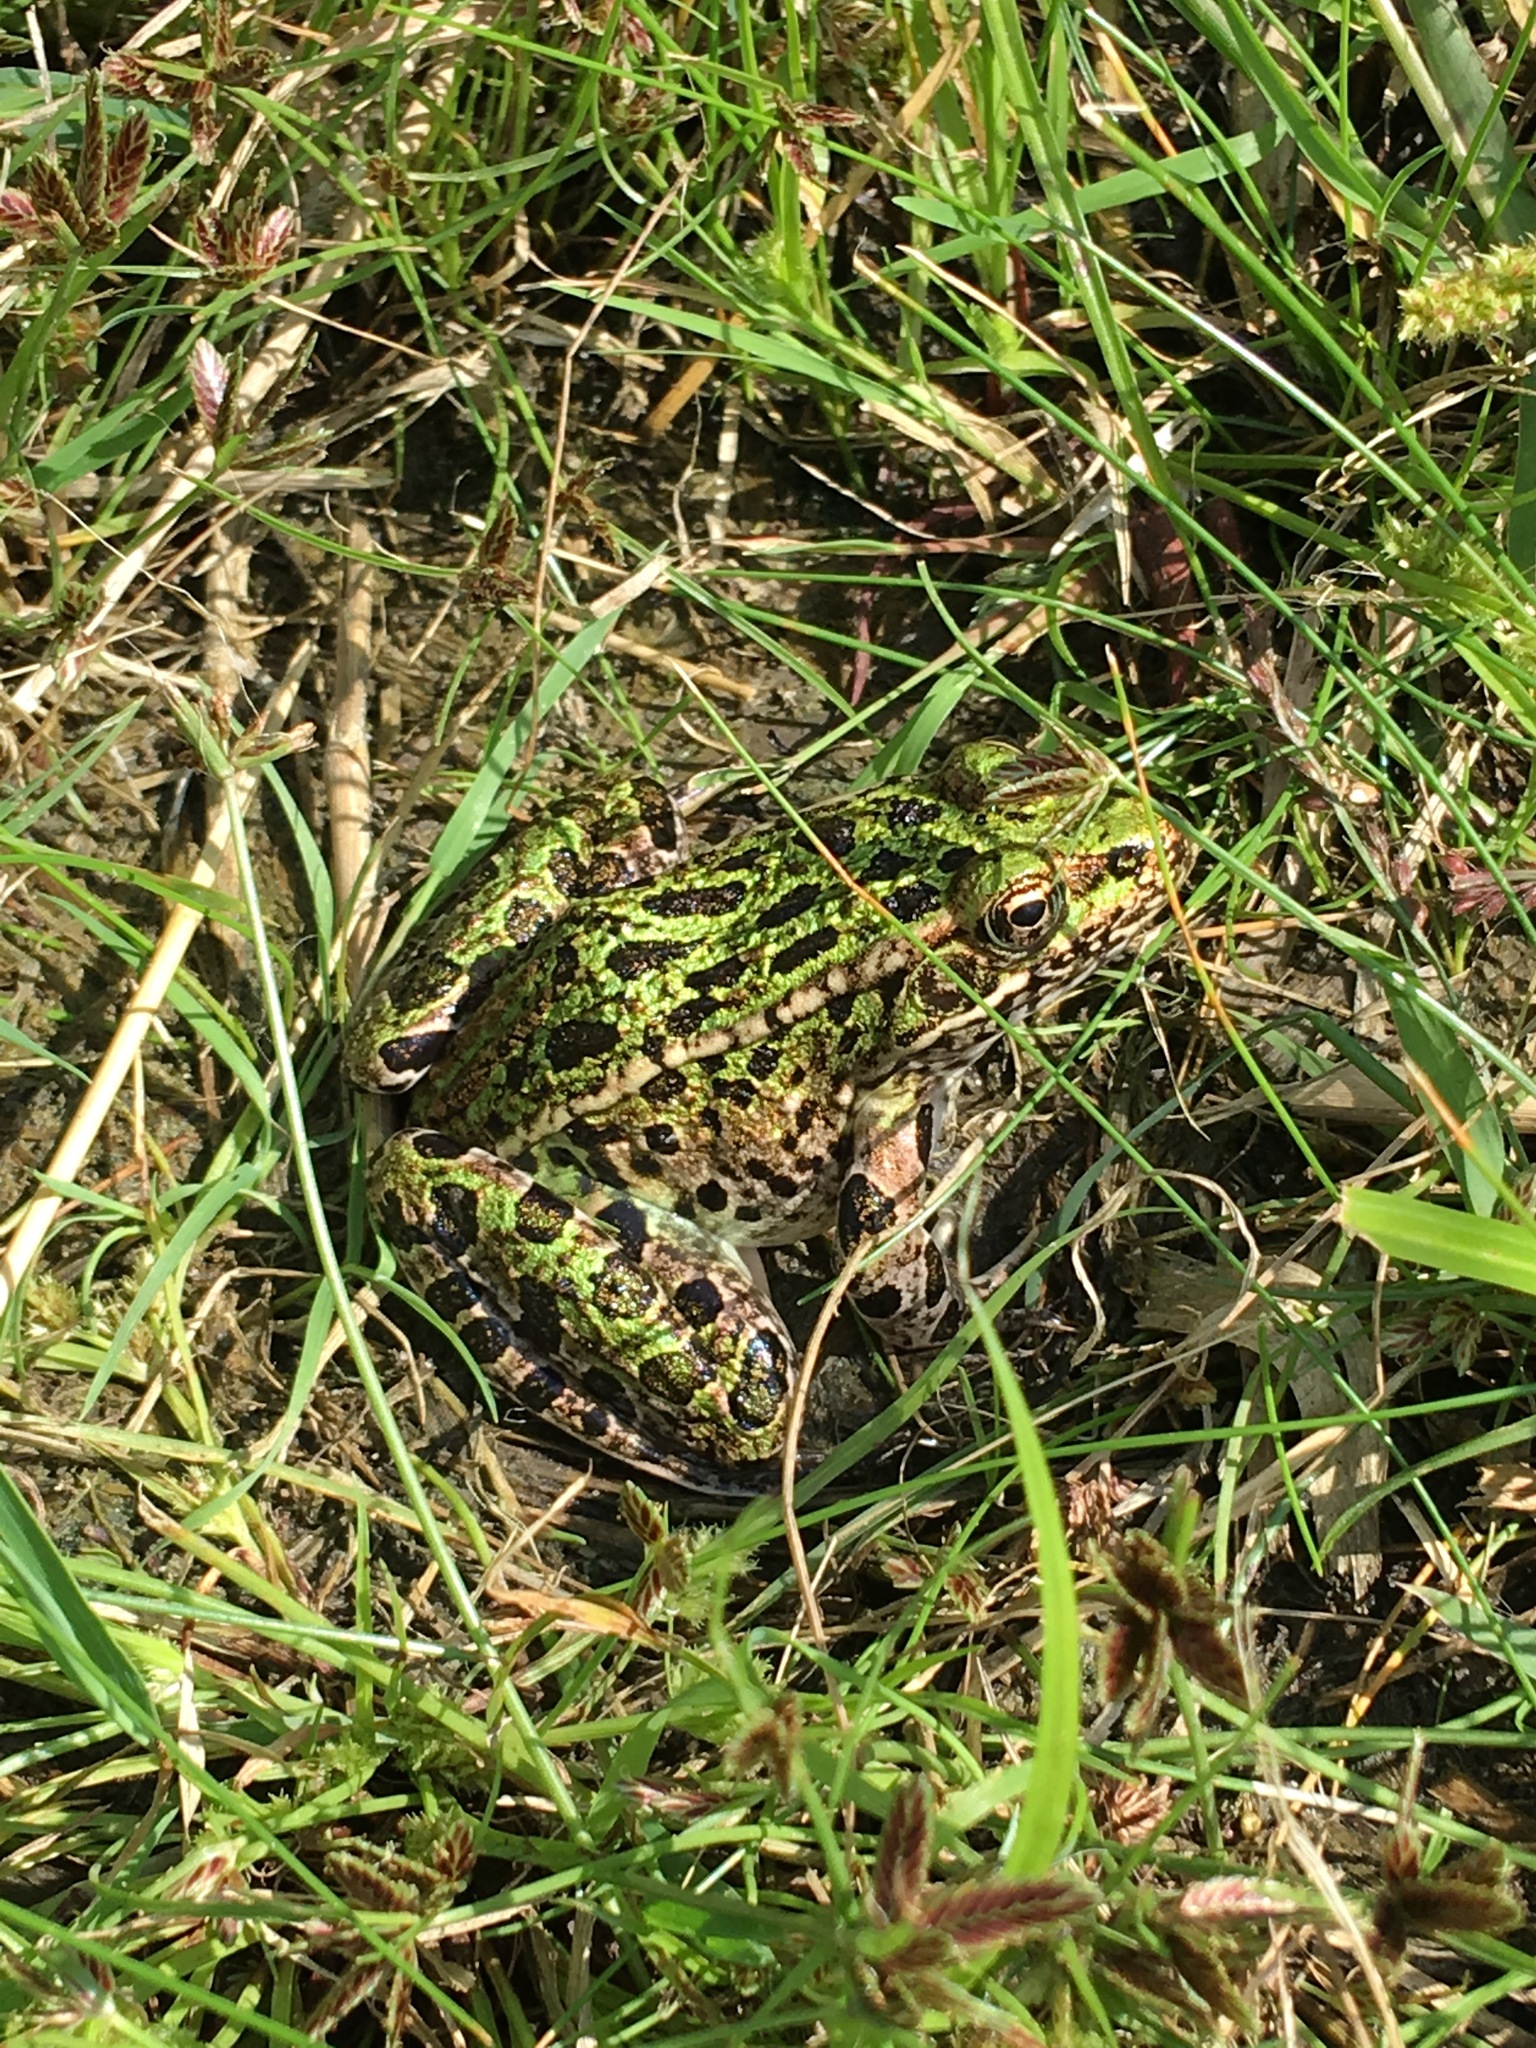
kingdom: Animalia
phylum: Chordata
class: Amphibia
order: Anura
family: Ranidae
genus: Lithobates
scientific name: Lithobates pipiens
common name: Northern leopard frog
